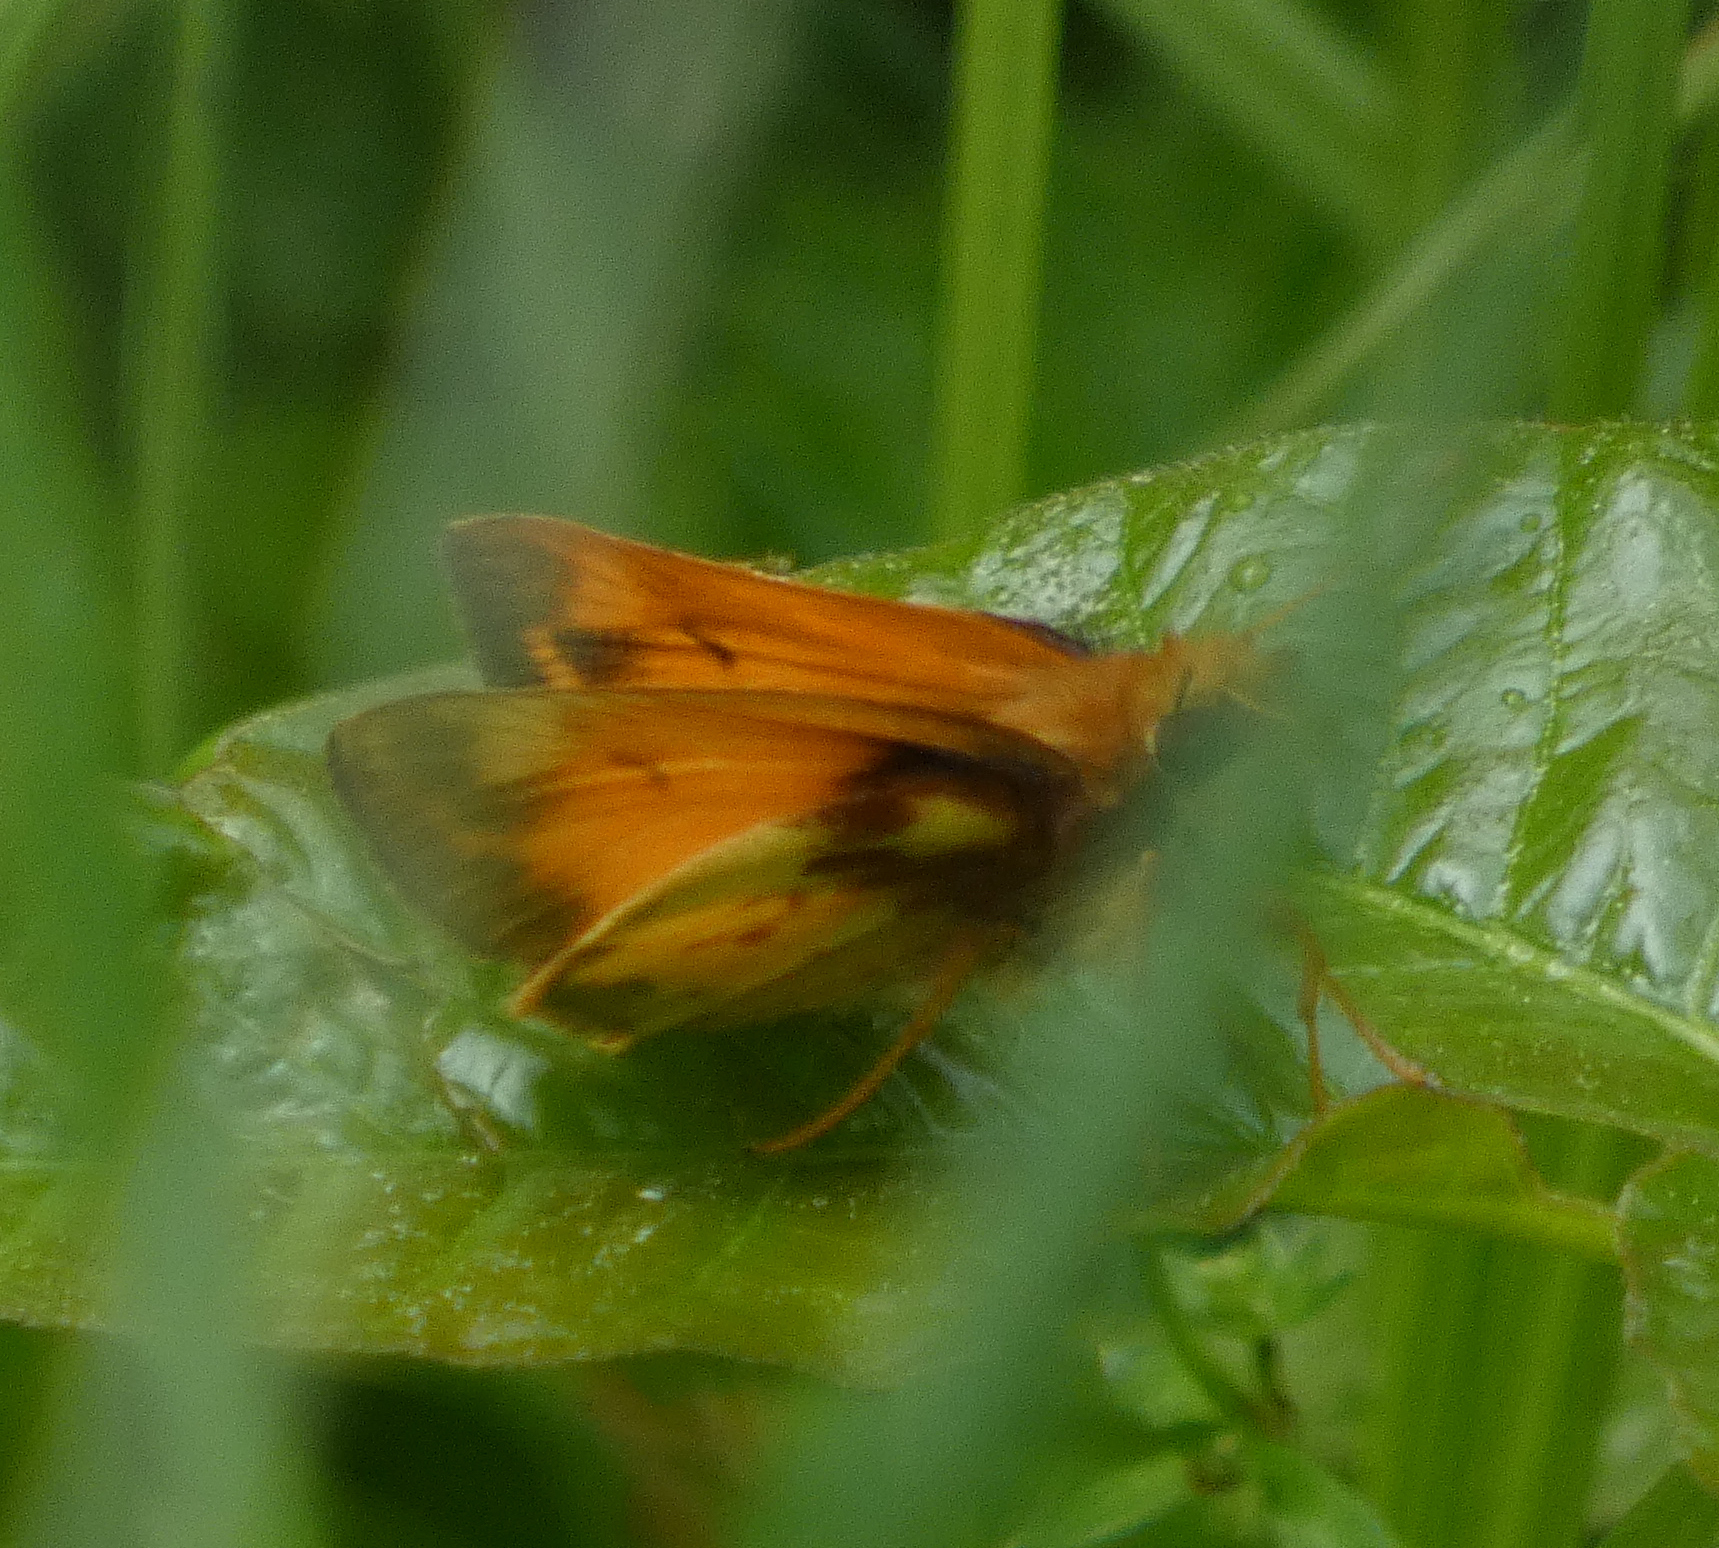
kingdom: Animalia
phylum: Arthropoda
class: Insecta
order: Lepidoptera
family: Hesperiidae
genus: Lon
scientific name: Lon zabulon
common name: Zabulon skipper
